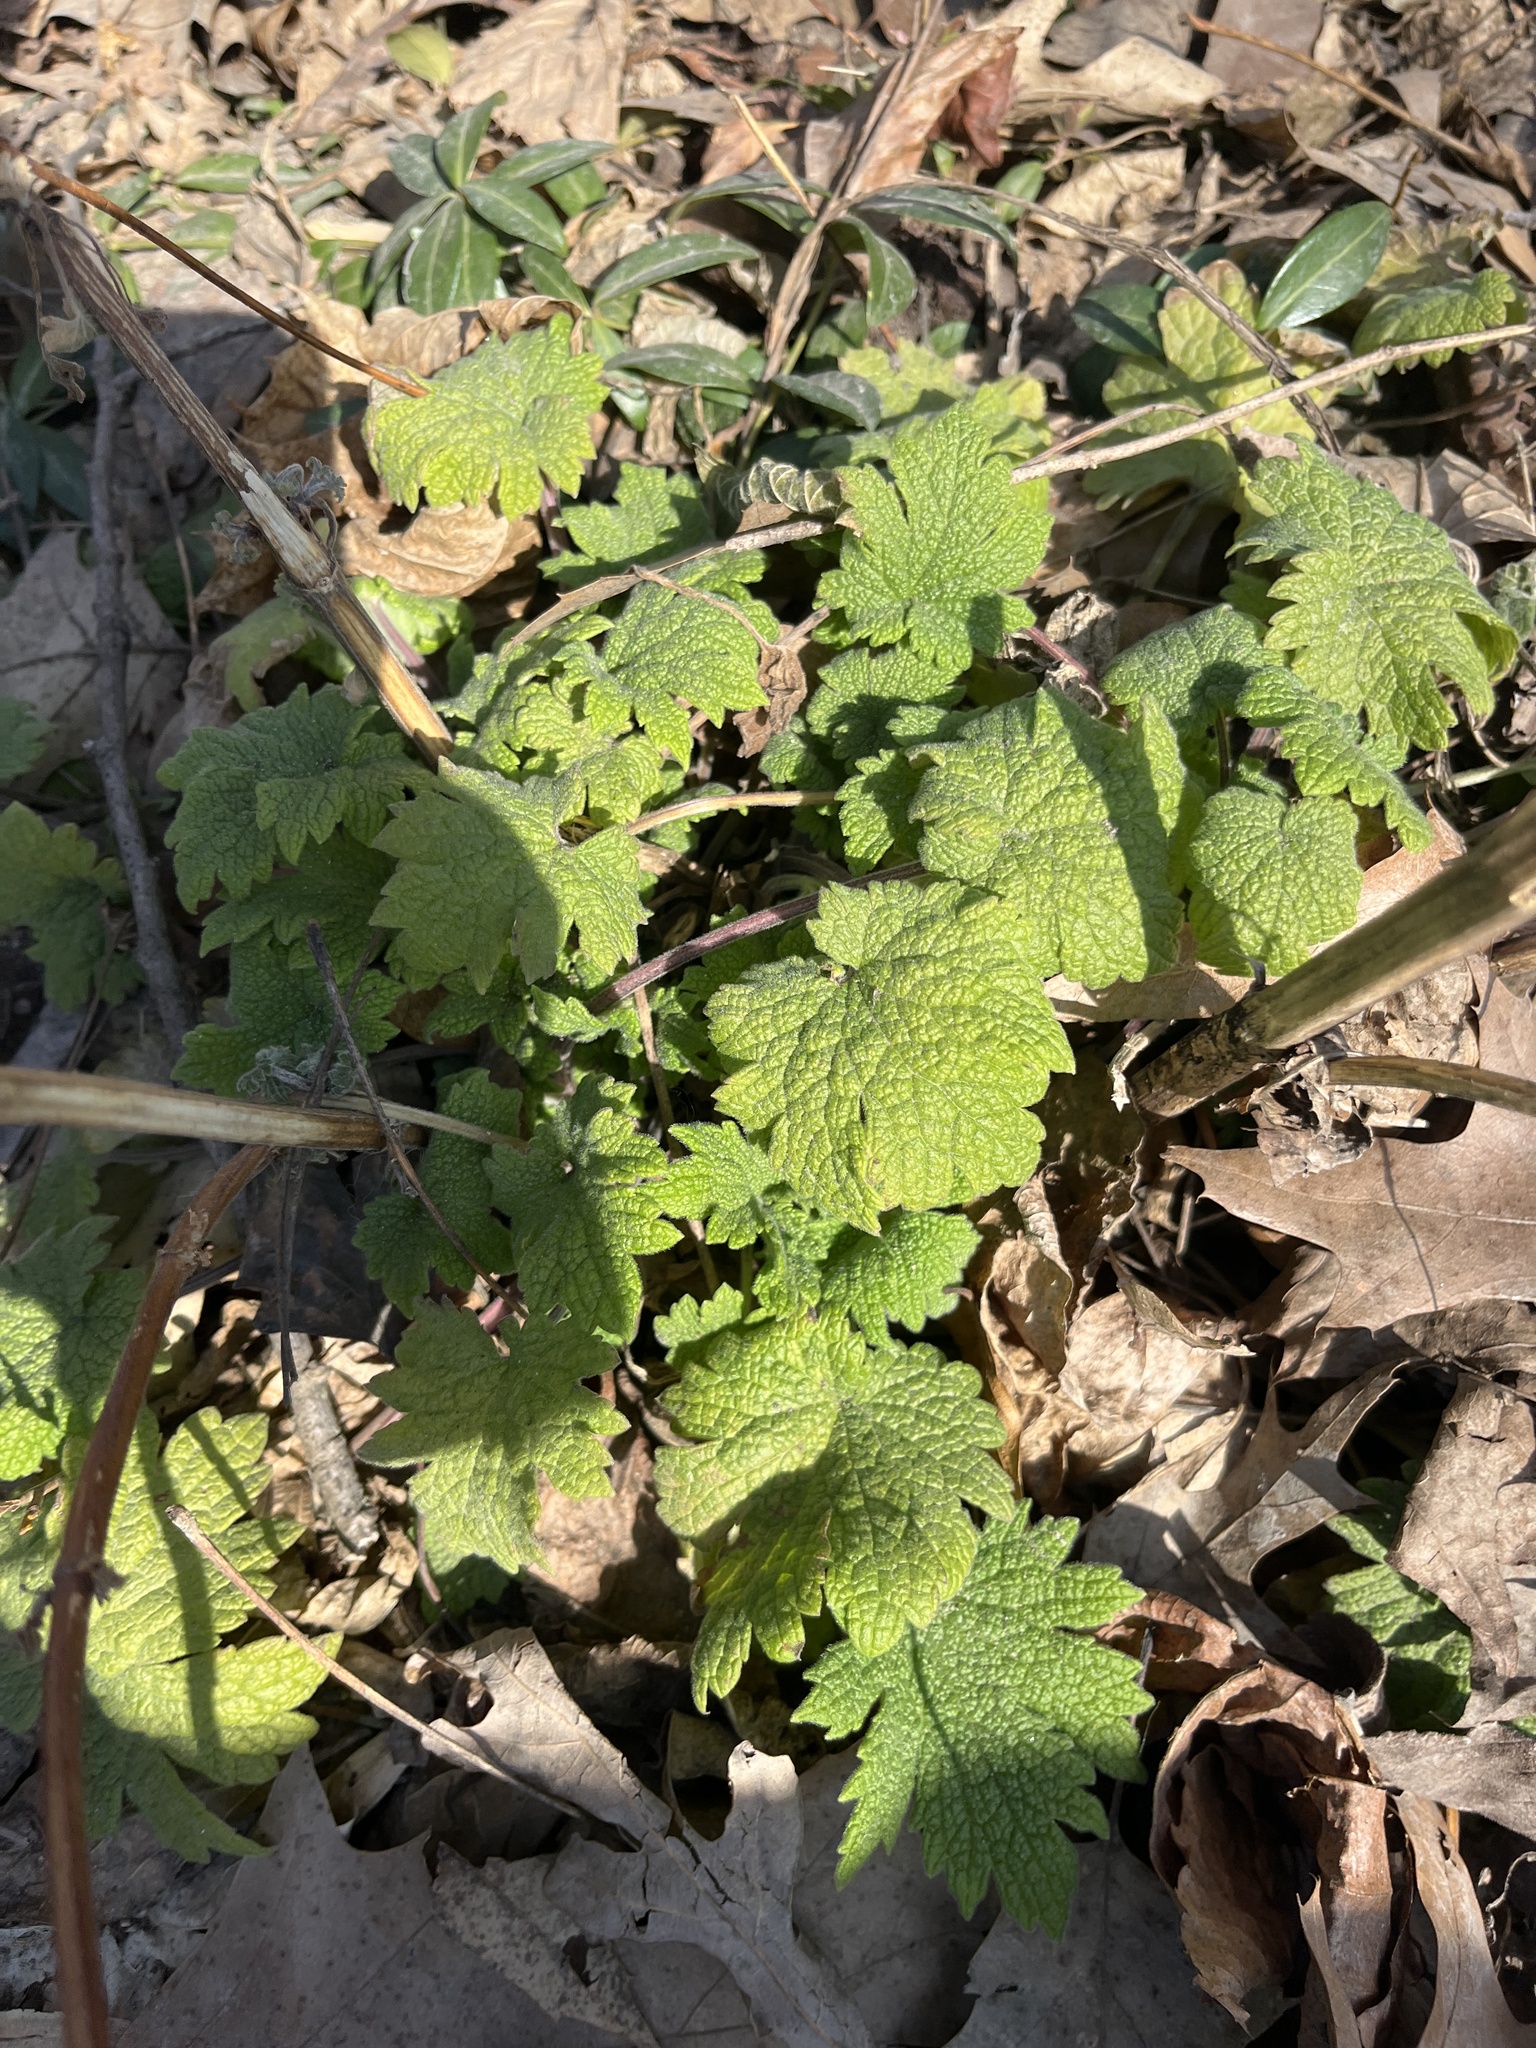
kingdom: Plantae
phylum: Tracheophyta
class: Magnoliopsida
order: Lamiales
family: Lamiaceae
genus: Leonurus
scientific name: Leonurus cardiaca
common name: Motherwort
